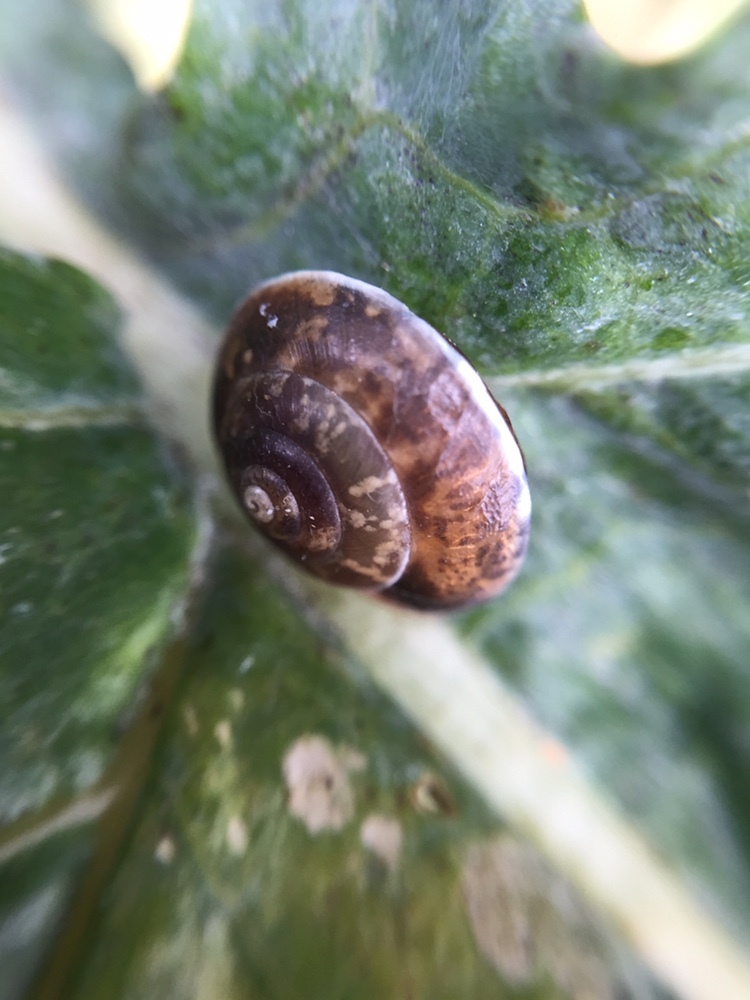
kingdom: Animalia
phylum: Mollusca
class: Gastropoda
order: Stylommatophora
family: Hygromiidae
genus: Hygromia
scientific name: Hygromia cinctella
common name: Girdled snail
